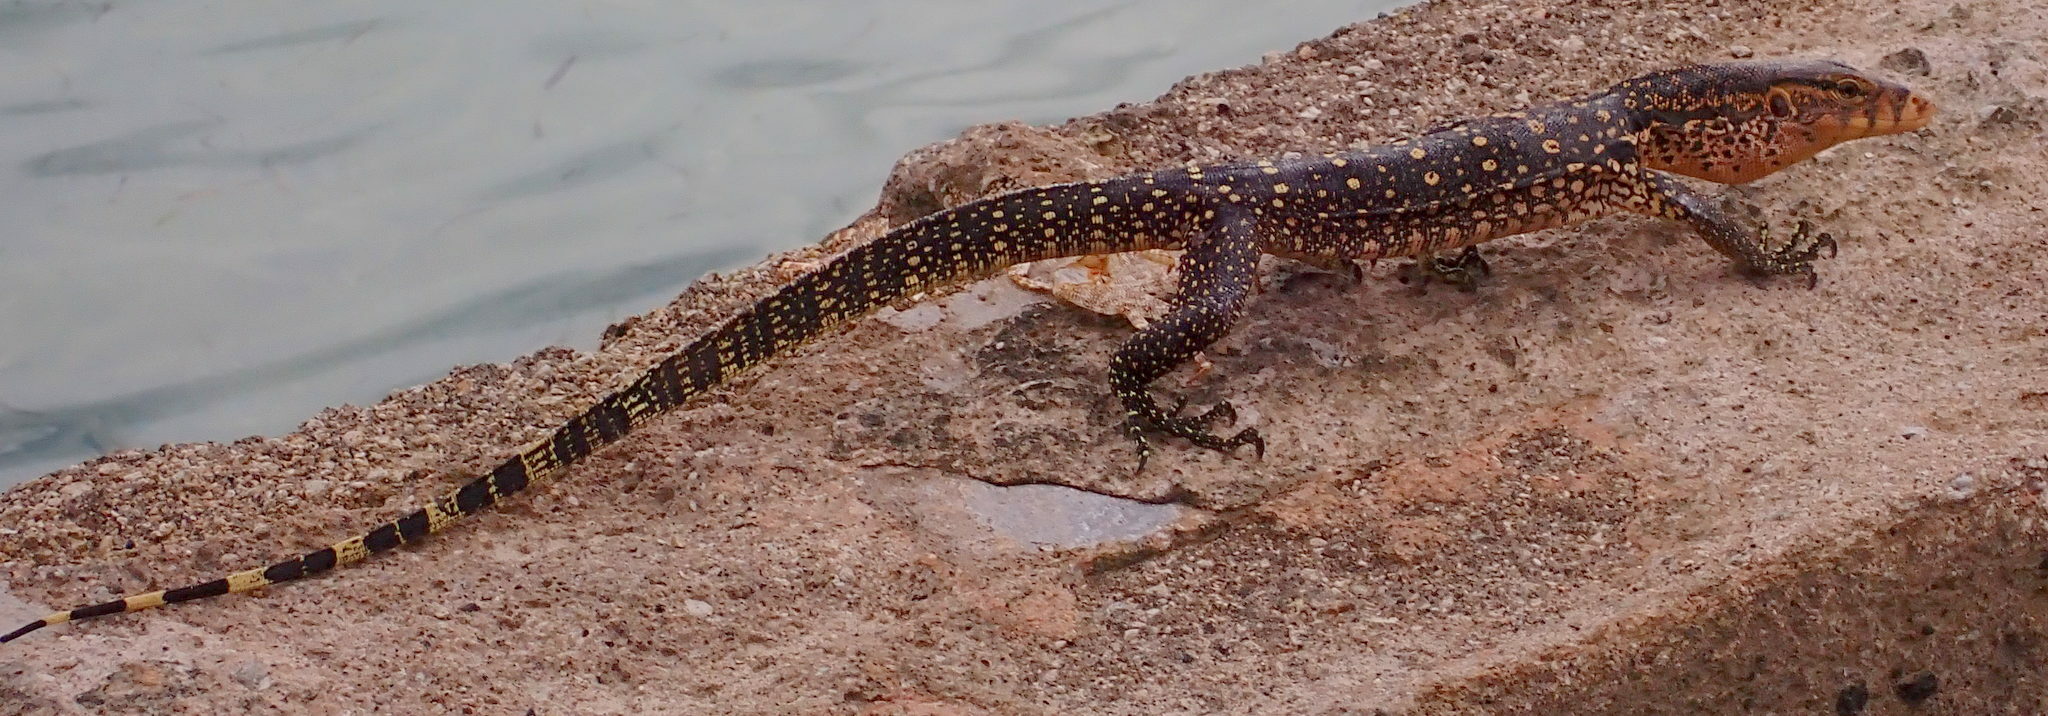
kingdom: Animalia
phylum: Chordata
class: Squamata
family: Varanidae
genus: Varanus
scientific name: Varanus salvator
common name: Common water monitor
